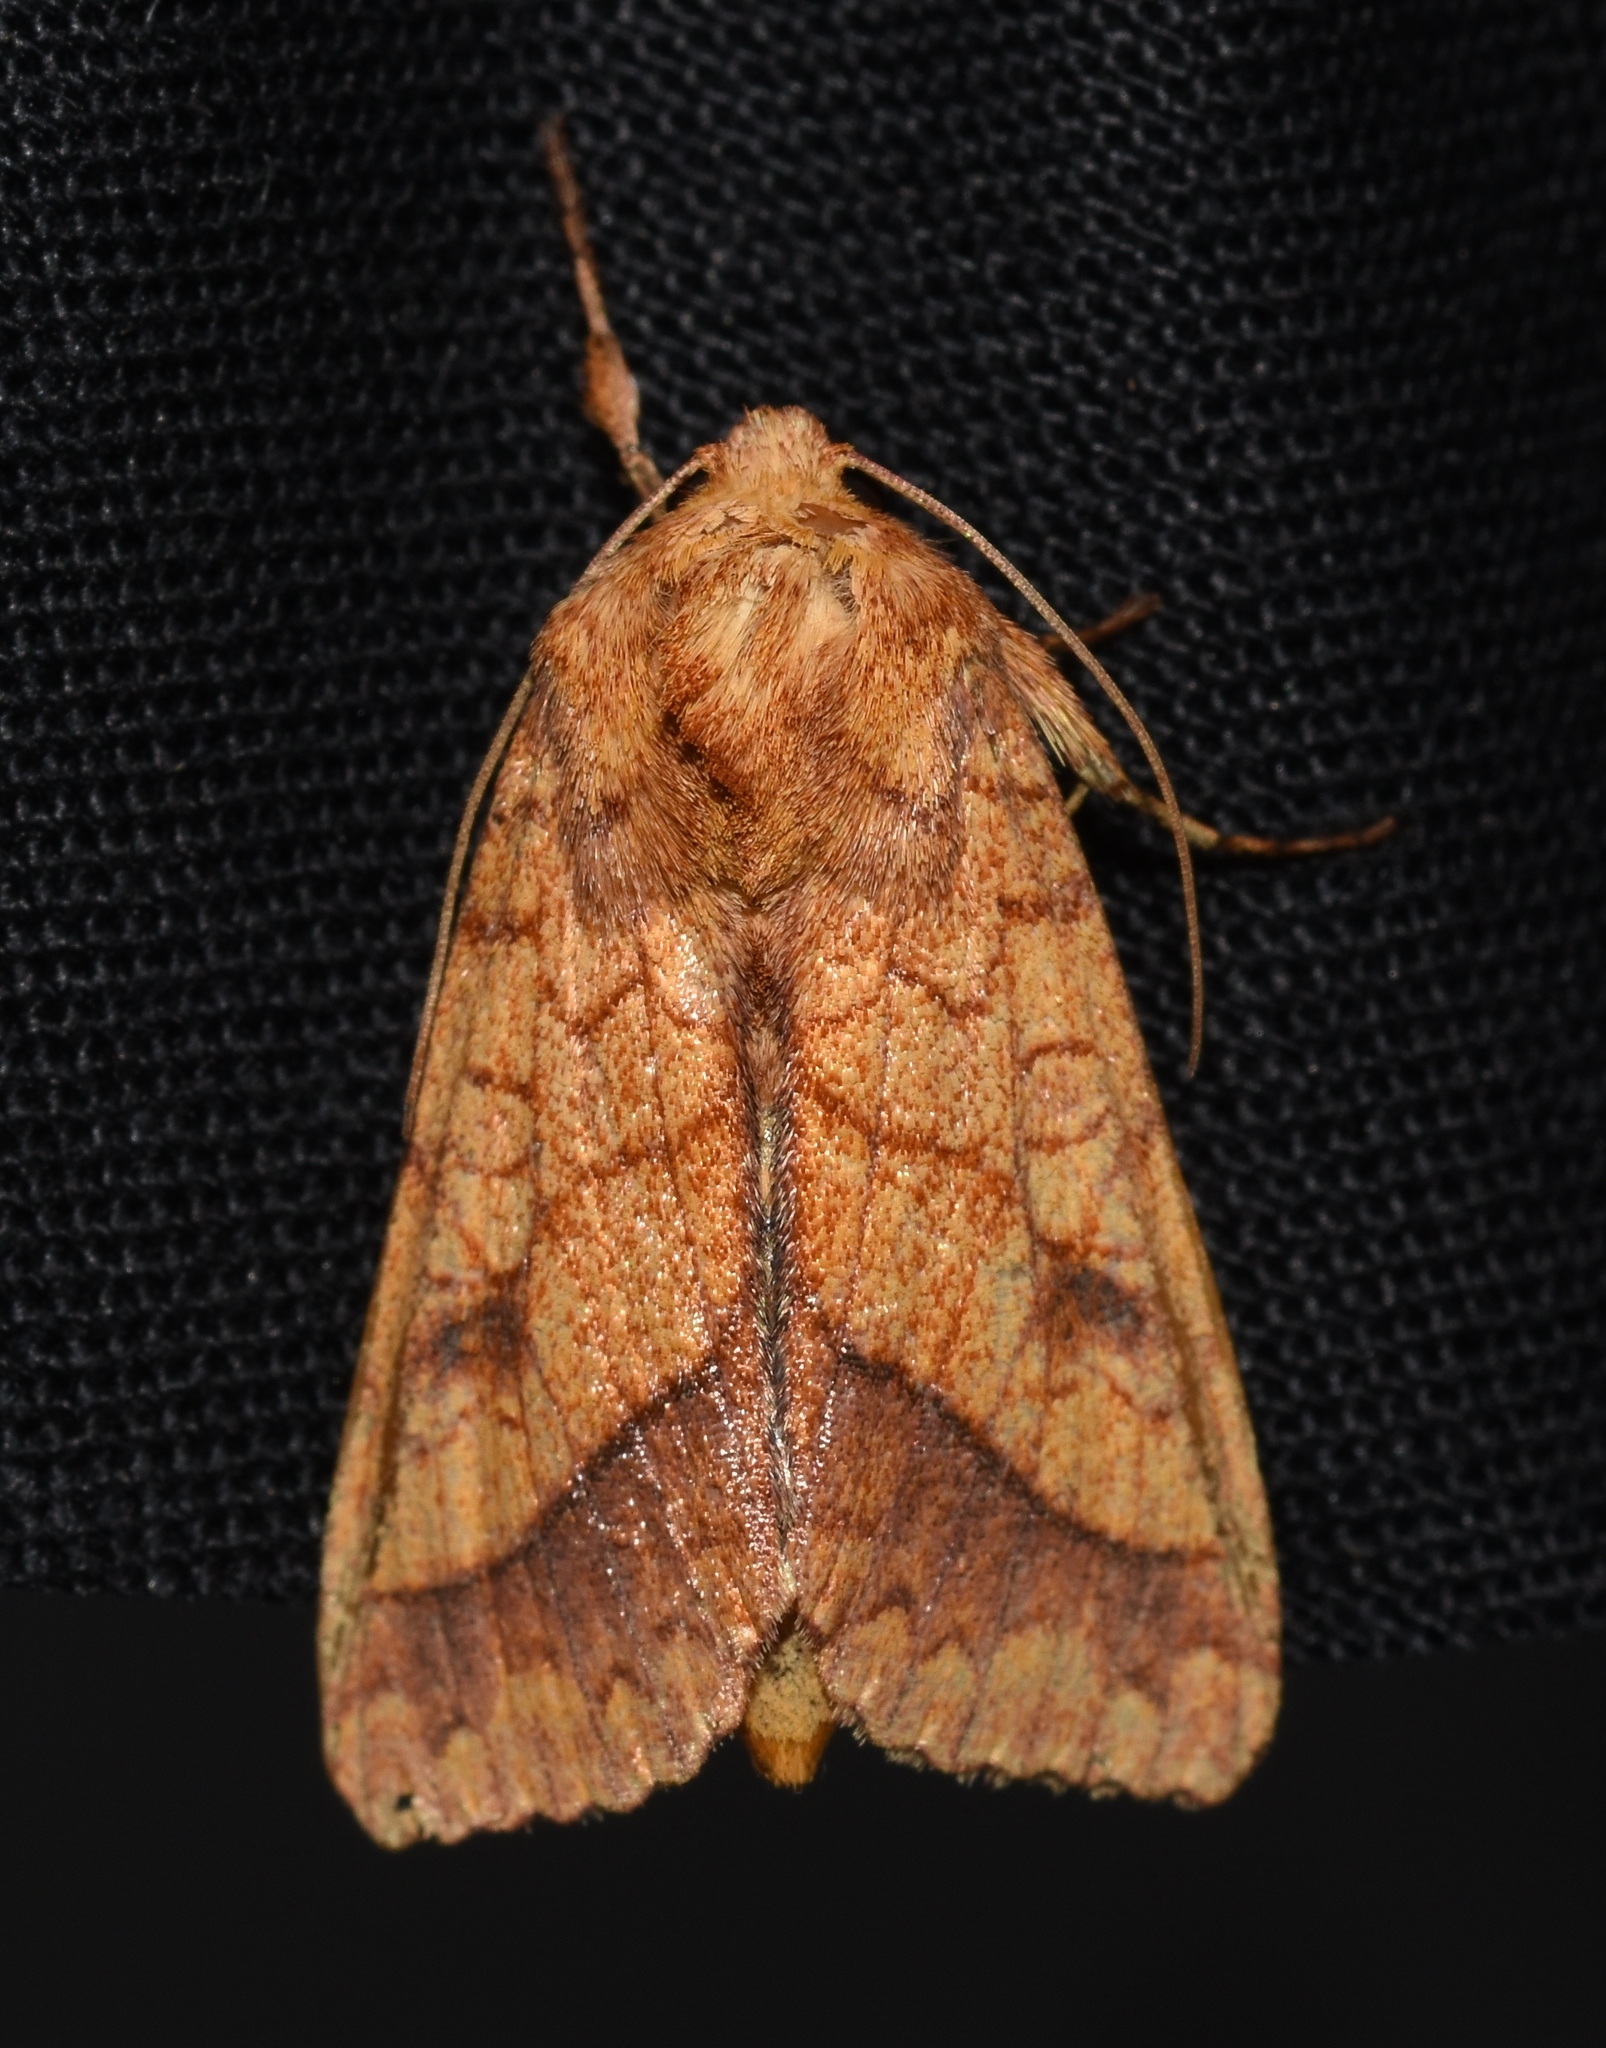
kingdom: Animalia
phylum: Arthropoda
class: Insecta
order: Lepidoptera
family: Noctuidae
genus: Pyrrhia
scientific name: Pyrrhia cilisca
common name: Bordered sallow moth
